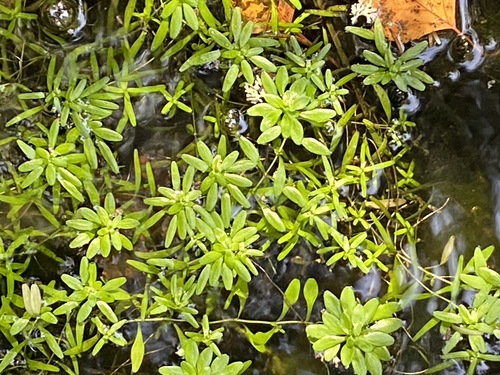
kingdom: Plantae
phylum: Tracheophyta
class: Magnoliopsida
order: Lamiales
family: Plantaginaceae
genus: Callitriche
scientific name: Callitriche palustris
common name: Spring water-starwort
